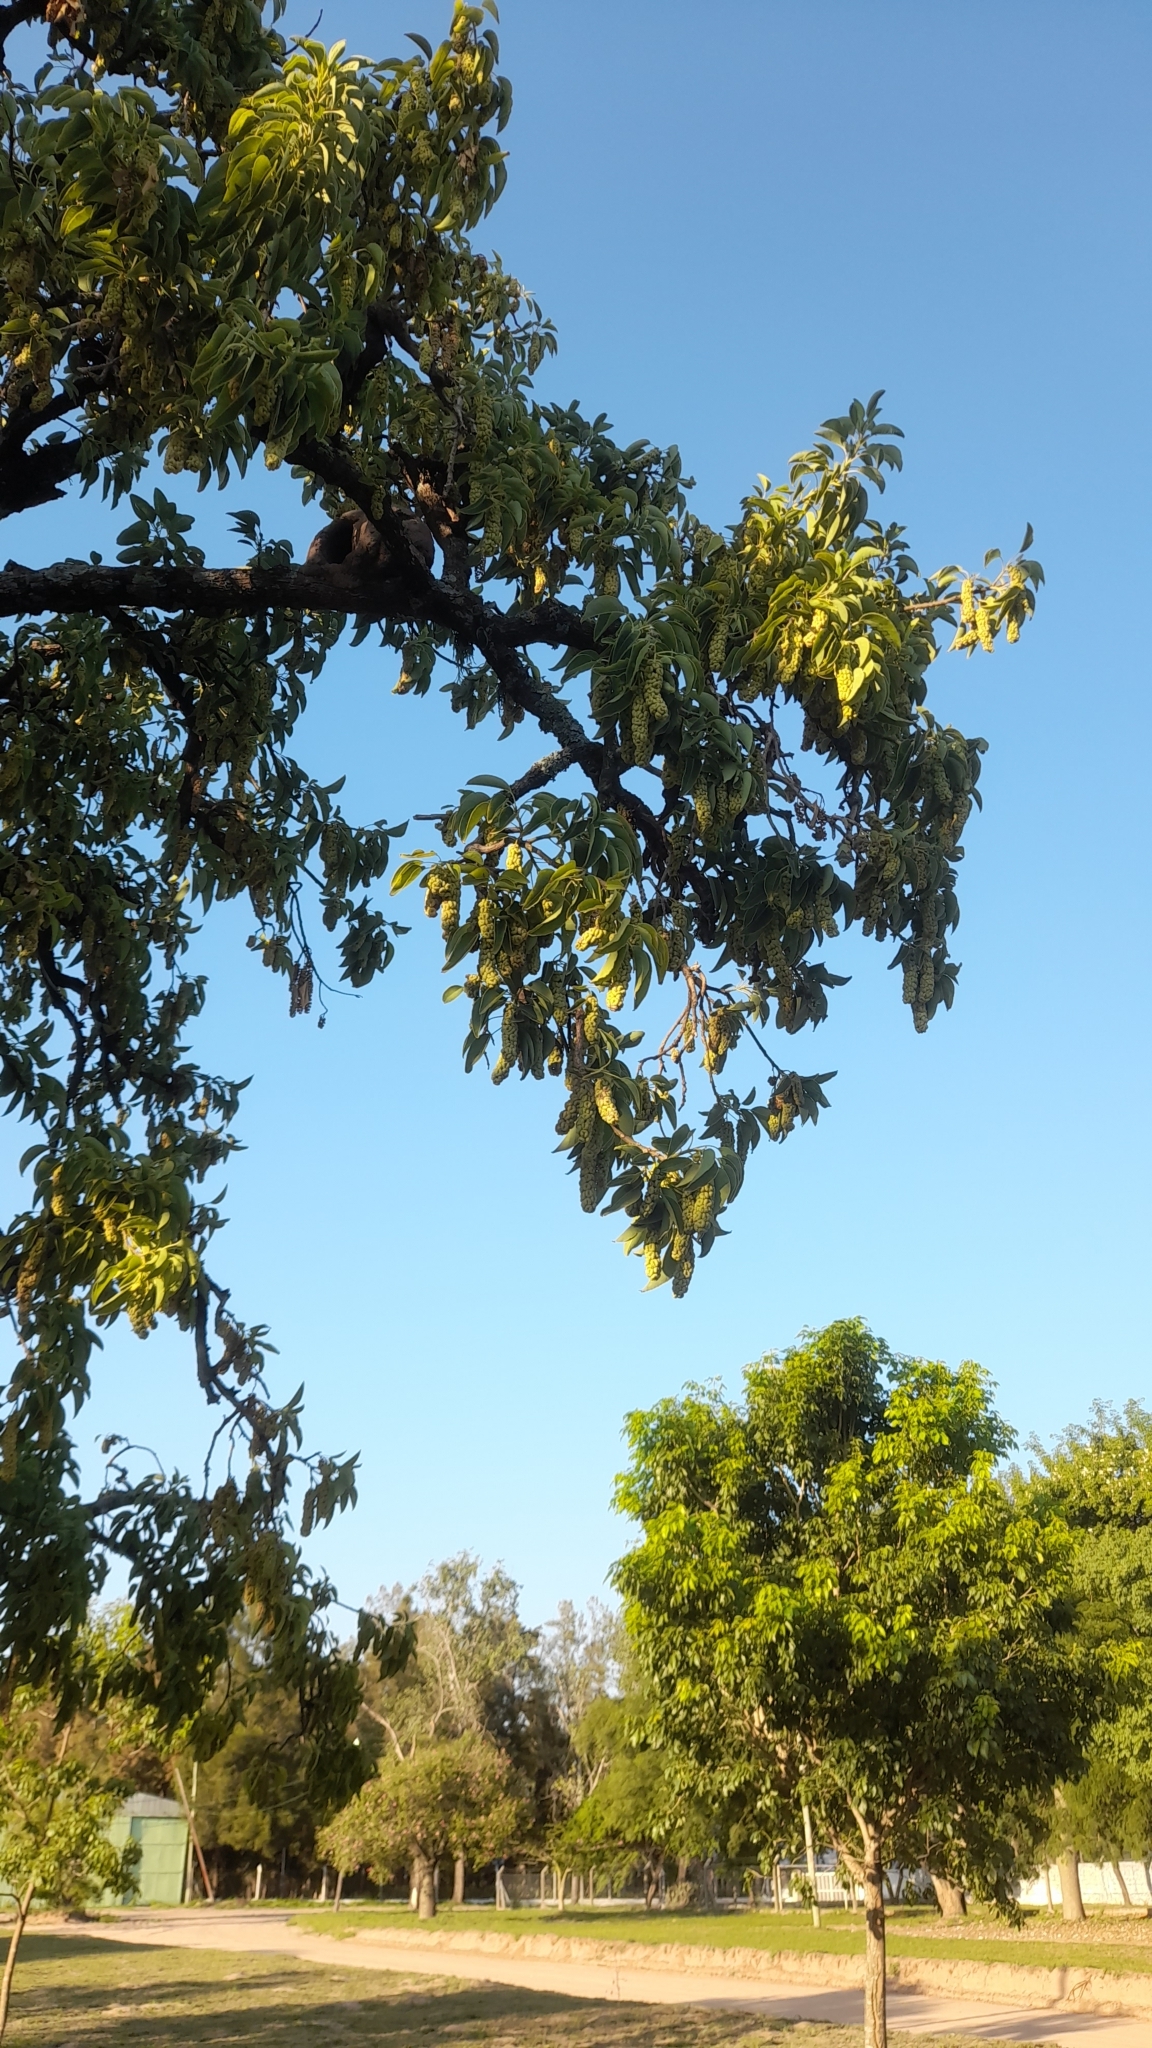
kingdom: Plantae
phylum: Tracheophyta
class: Magnoliopsida
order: Caryophyllales
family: Phytolaccaceae
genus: Phytolacca
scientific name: Phytolacca dioica
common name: Pokeweed
